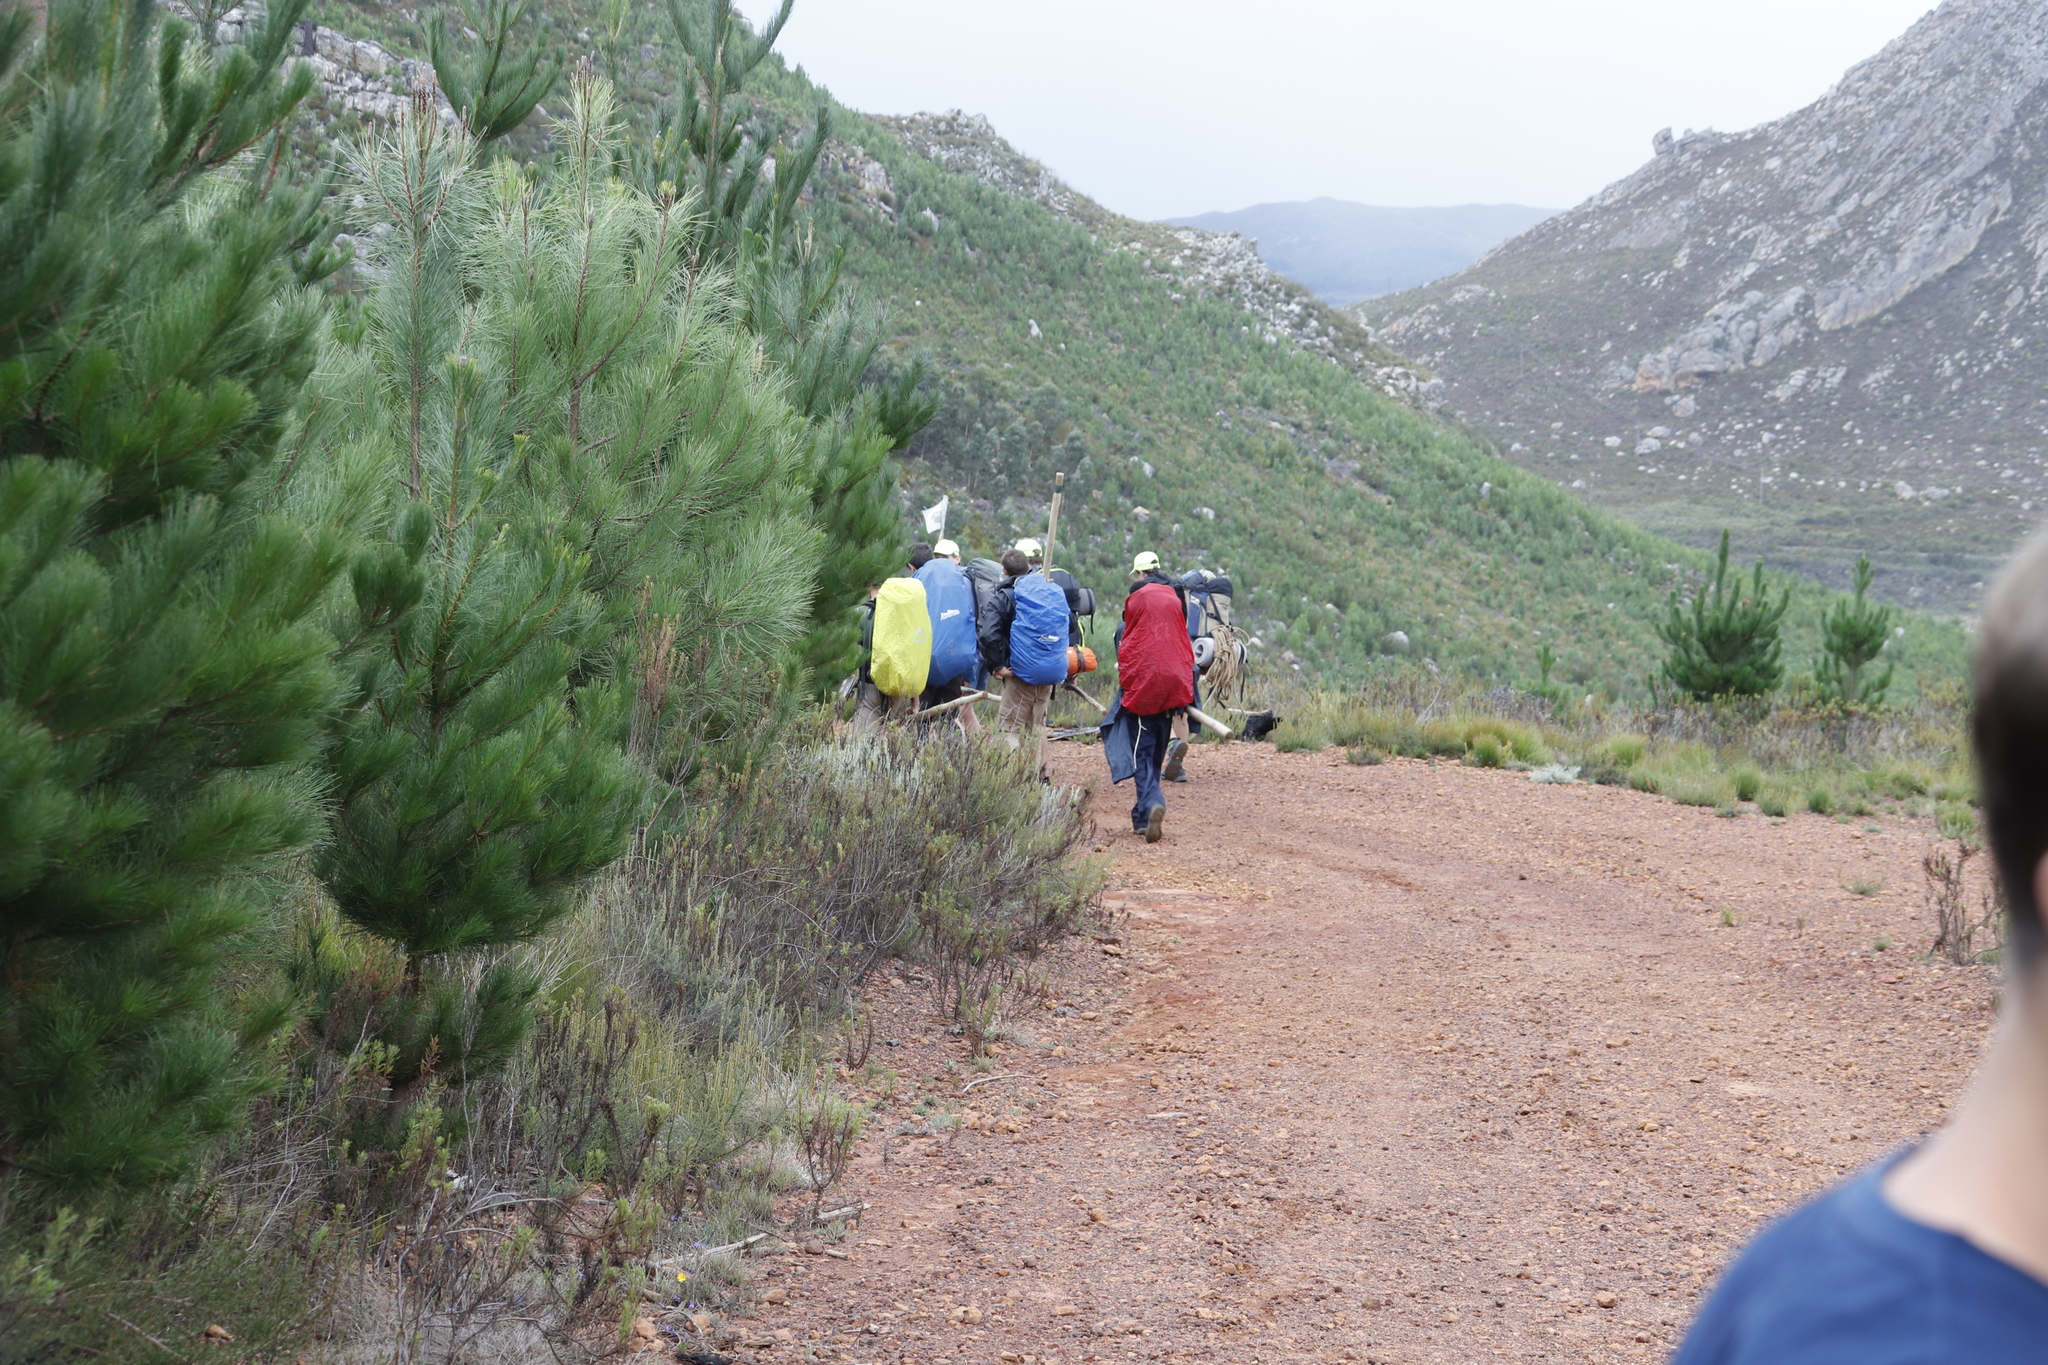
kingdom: Plantae
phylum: Tracheophyta
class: Pinopsida
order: Pinales
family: Pinaceae
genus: Pinus
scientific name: Pinus radiata
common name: Monterey pine
